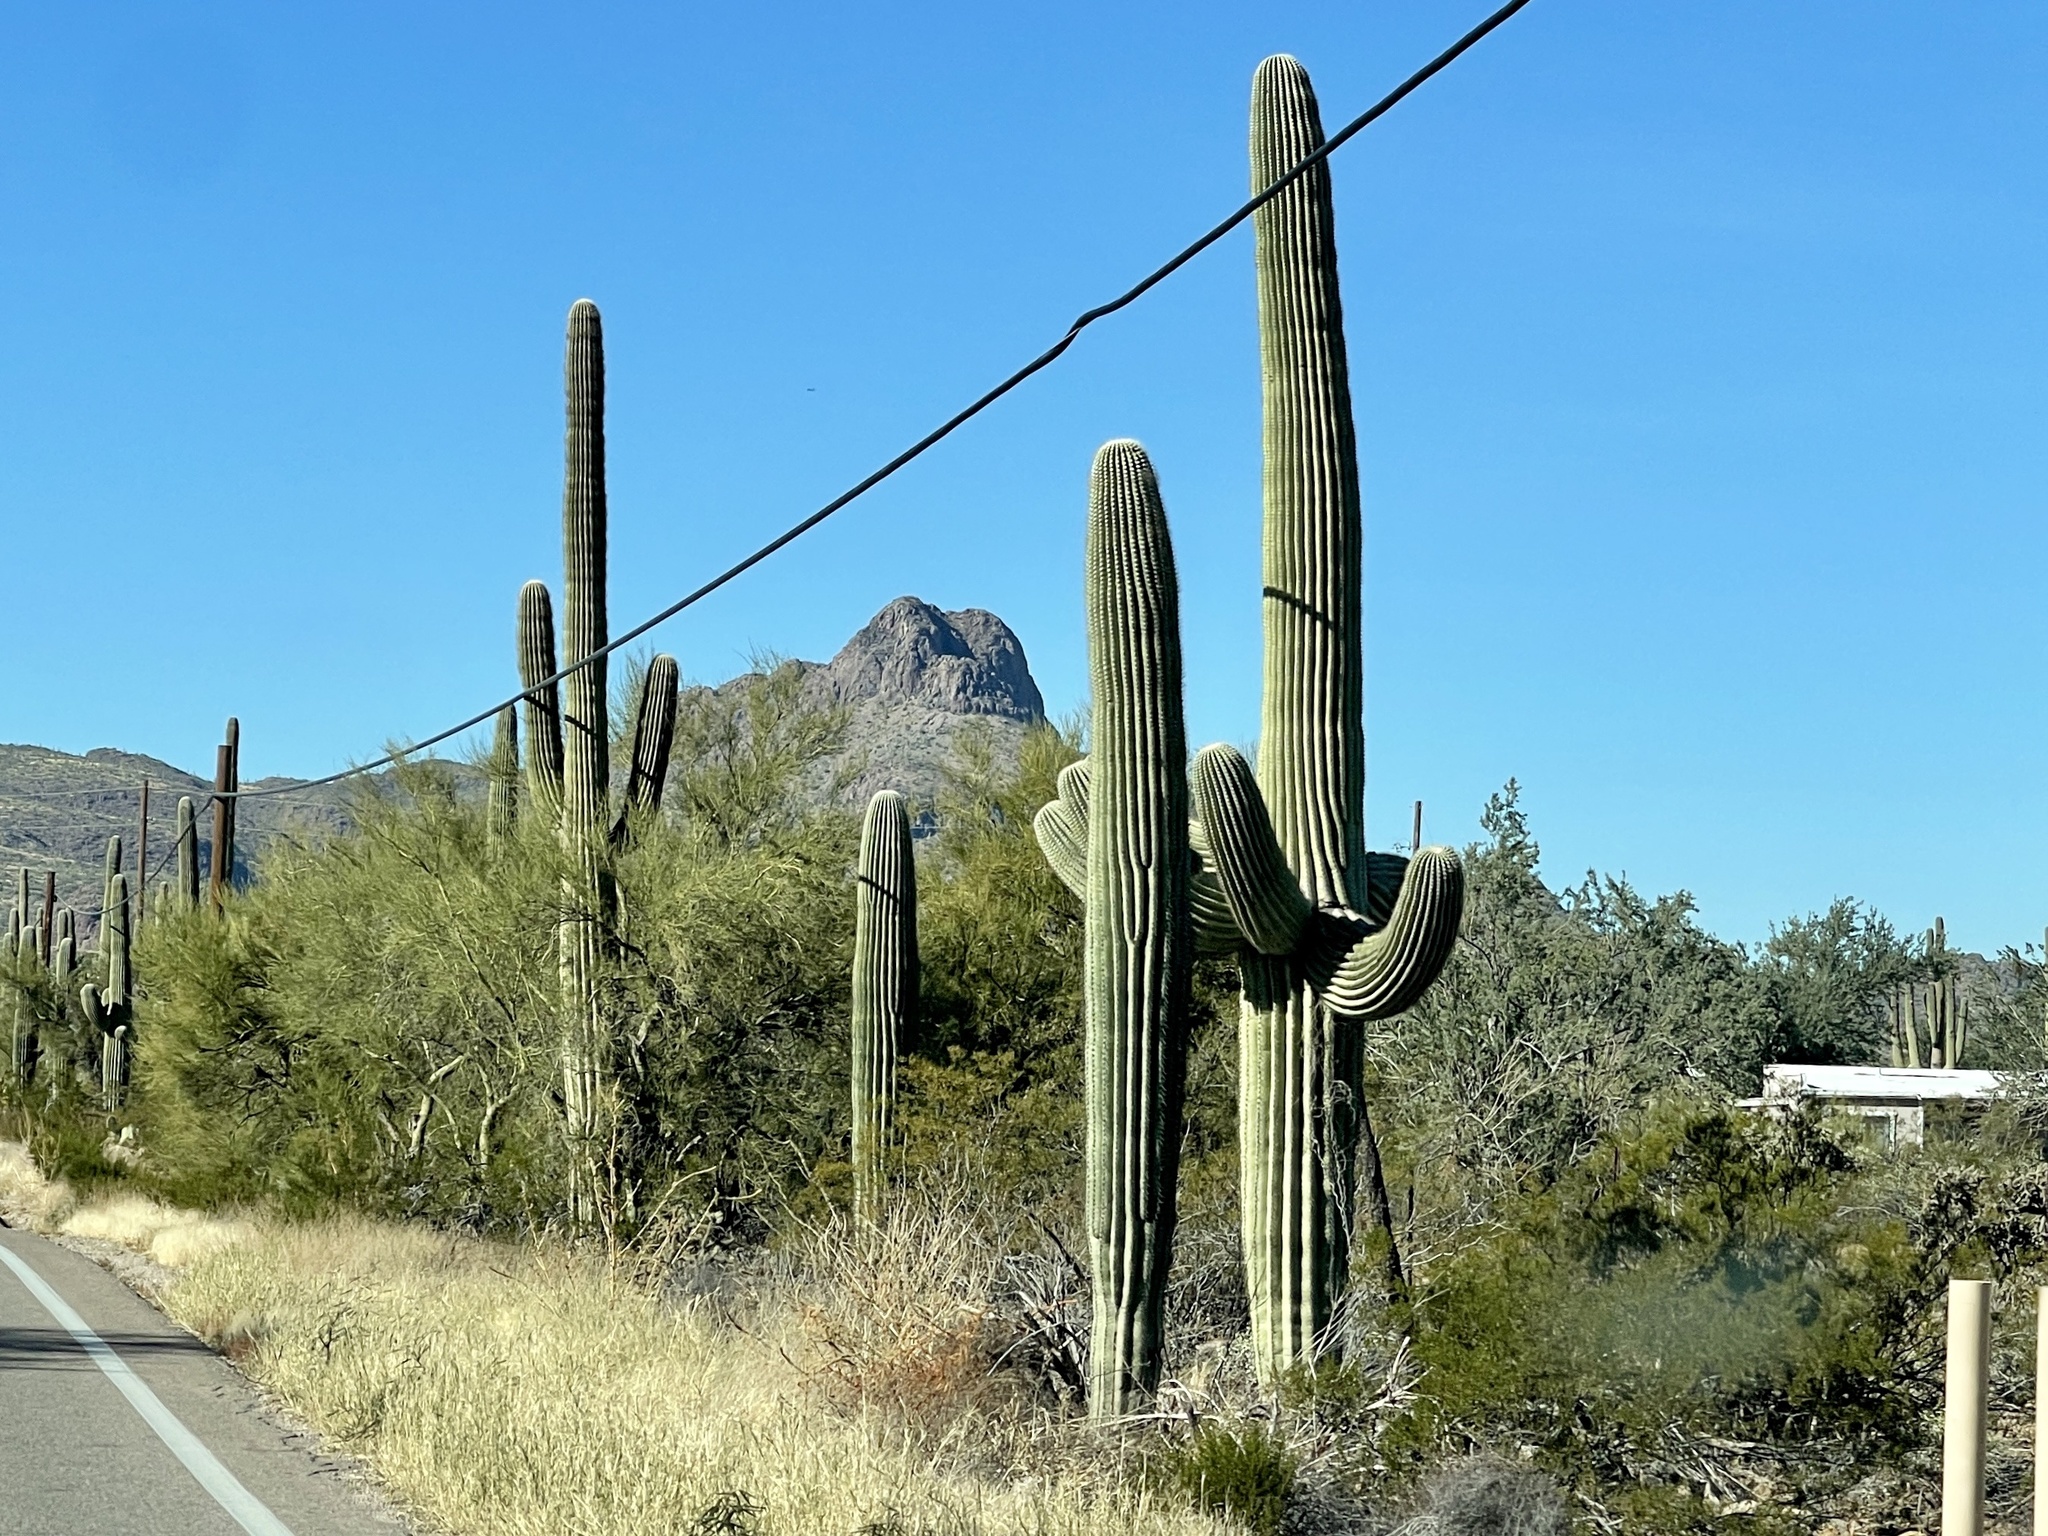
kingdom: Plantae
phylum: Tracheophyta
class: Magnoliopsida
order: Caryophyllales
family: Cactaceae
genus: Carnegiea
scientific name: Carnegiea gigantea
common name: Saguaro
